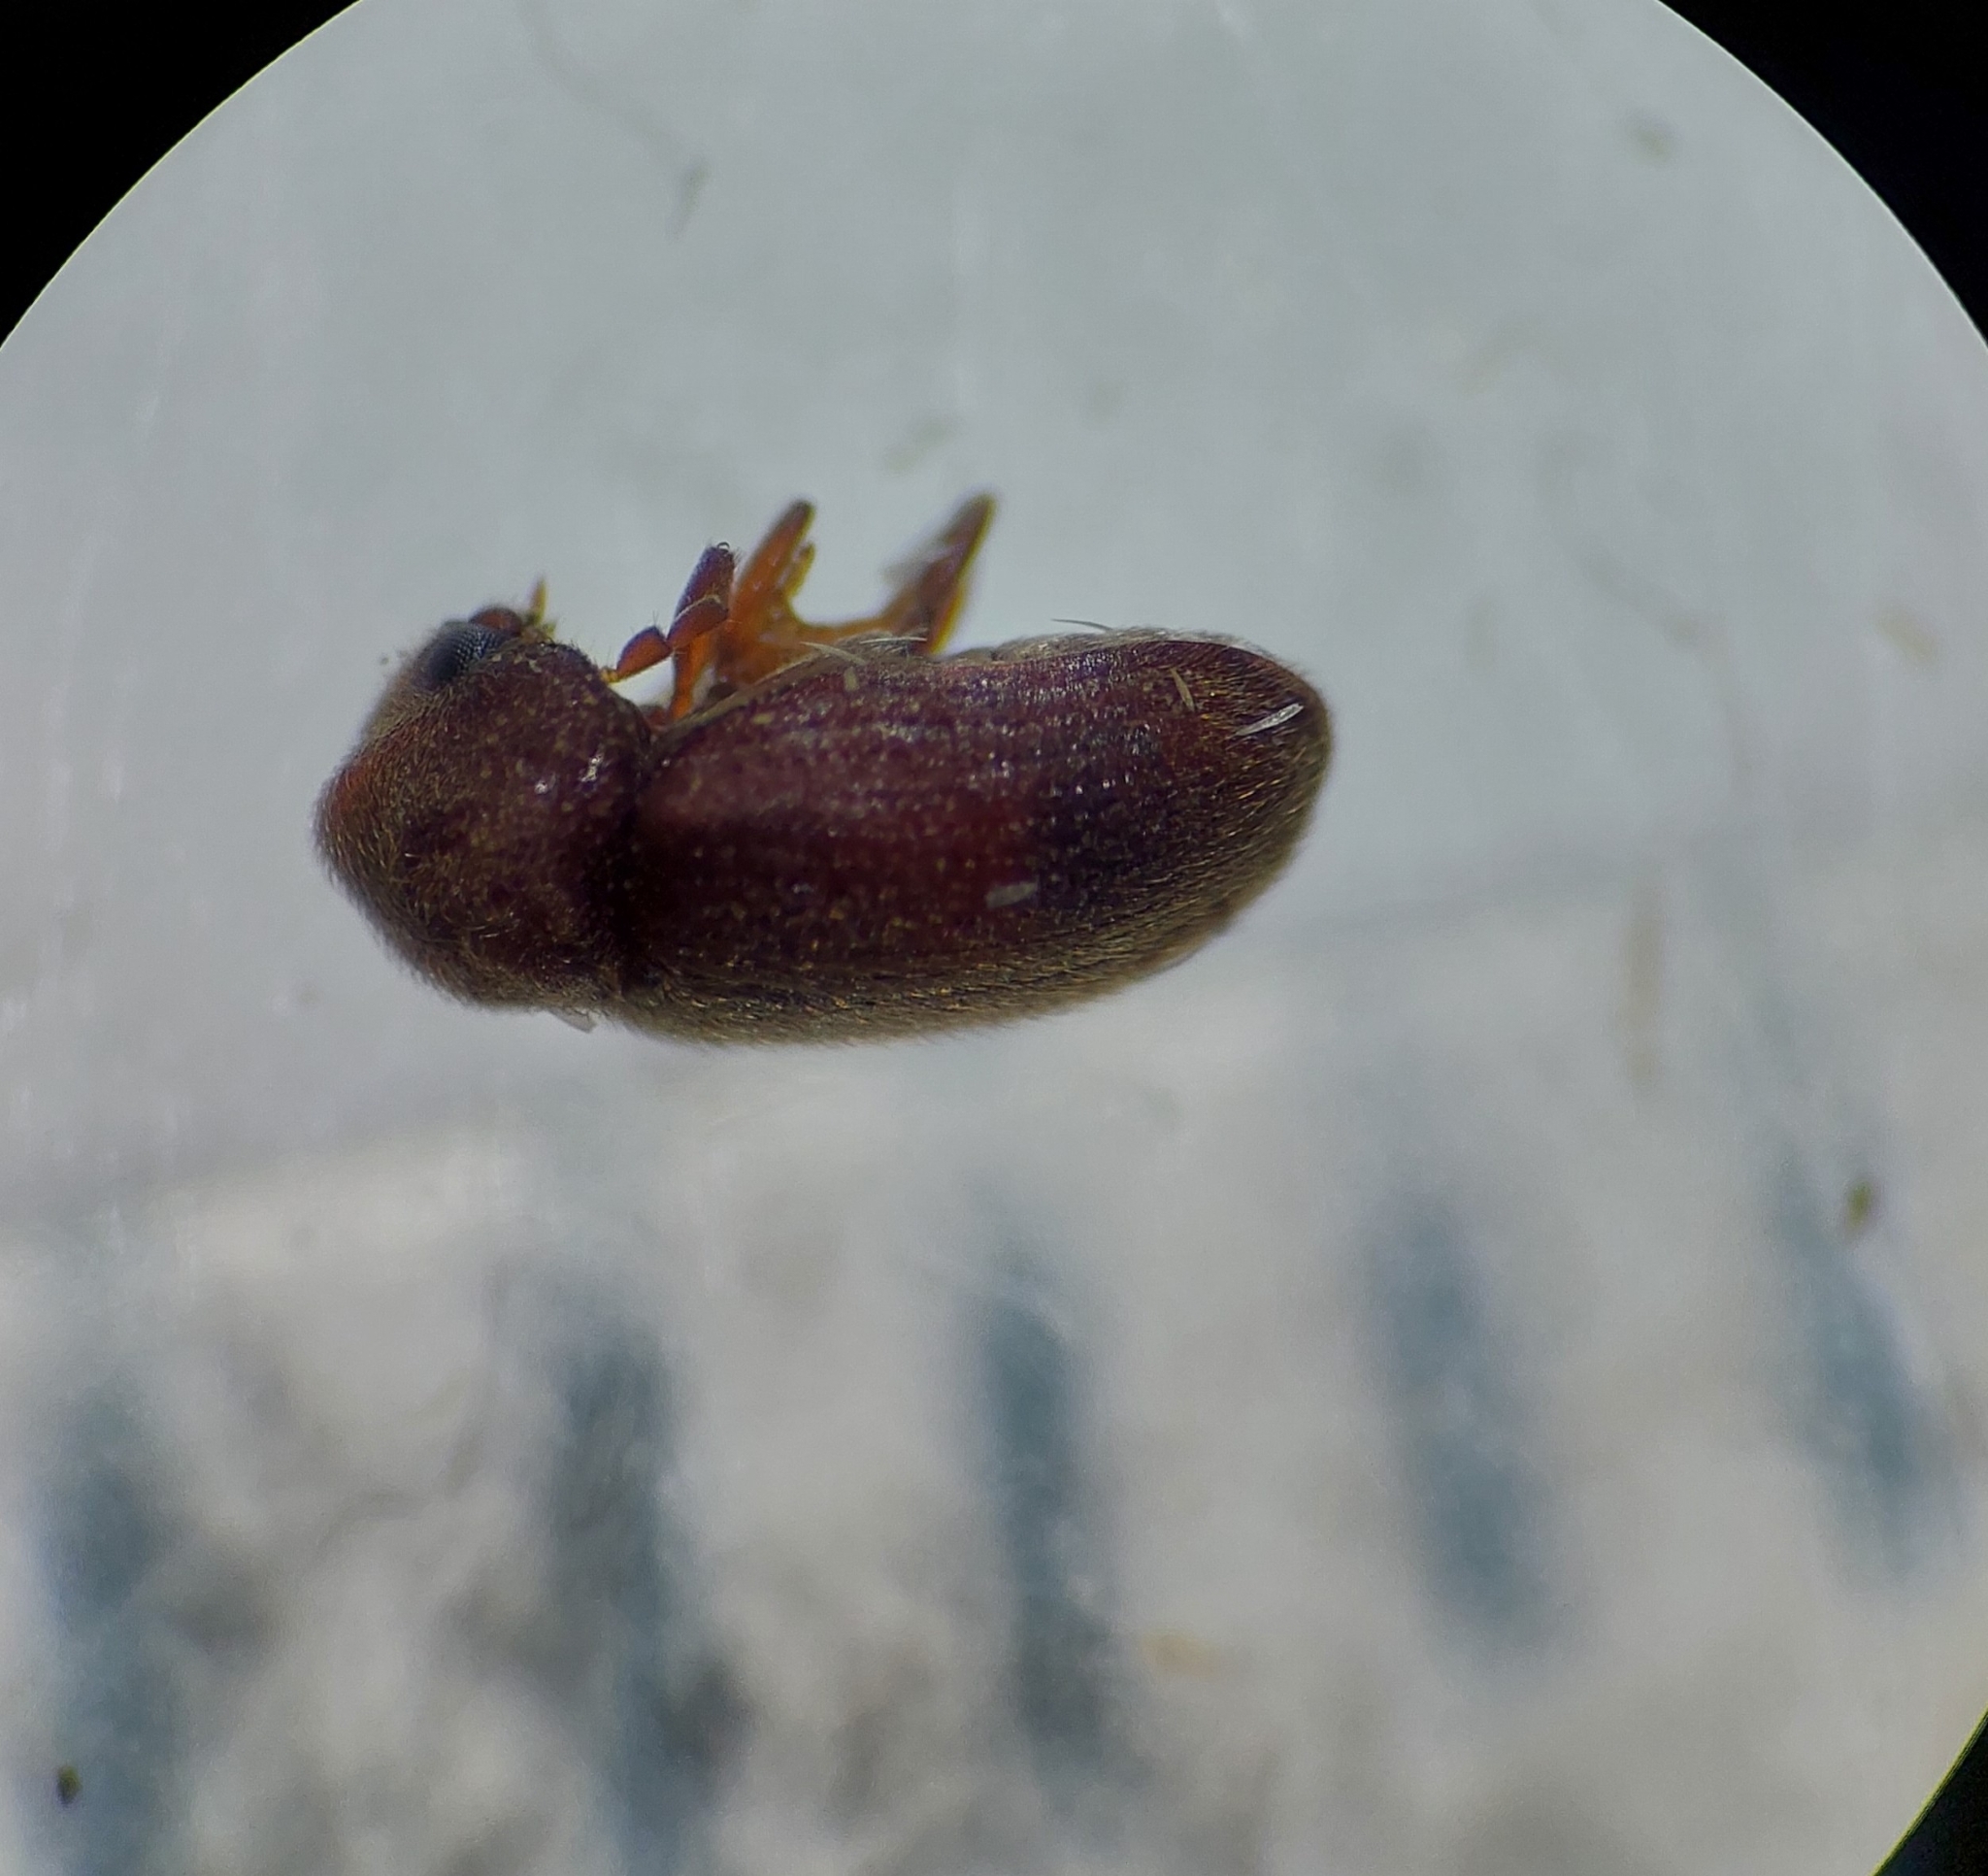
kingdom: Animalia
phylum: Arthropoda
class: Insecta
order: Coleoptera
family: Anobiidae
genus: Stegobium
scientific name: Stegobium paniceum
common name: Drugstore beetle
